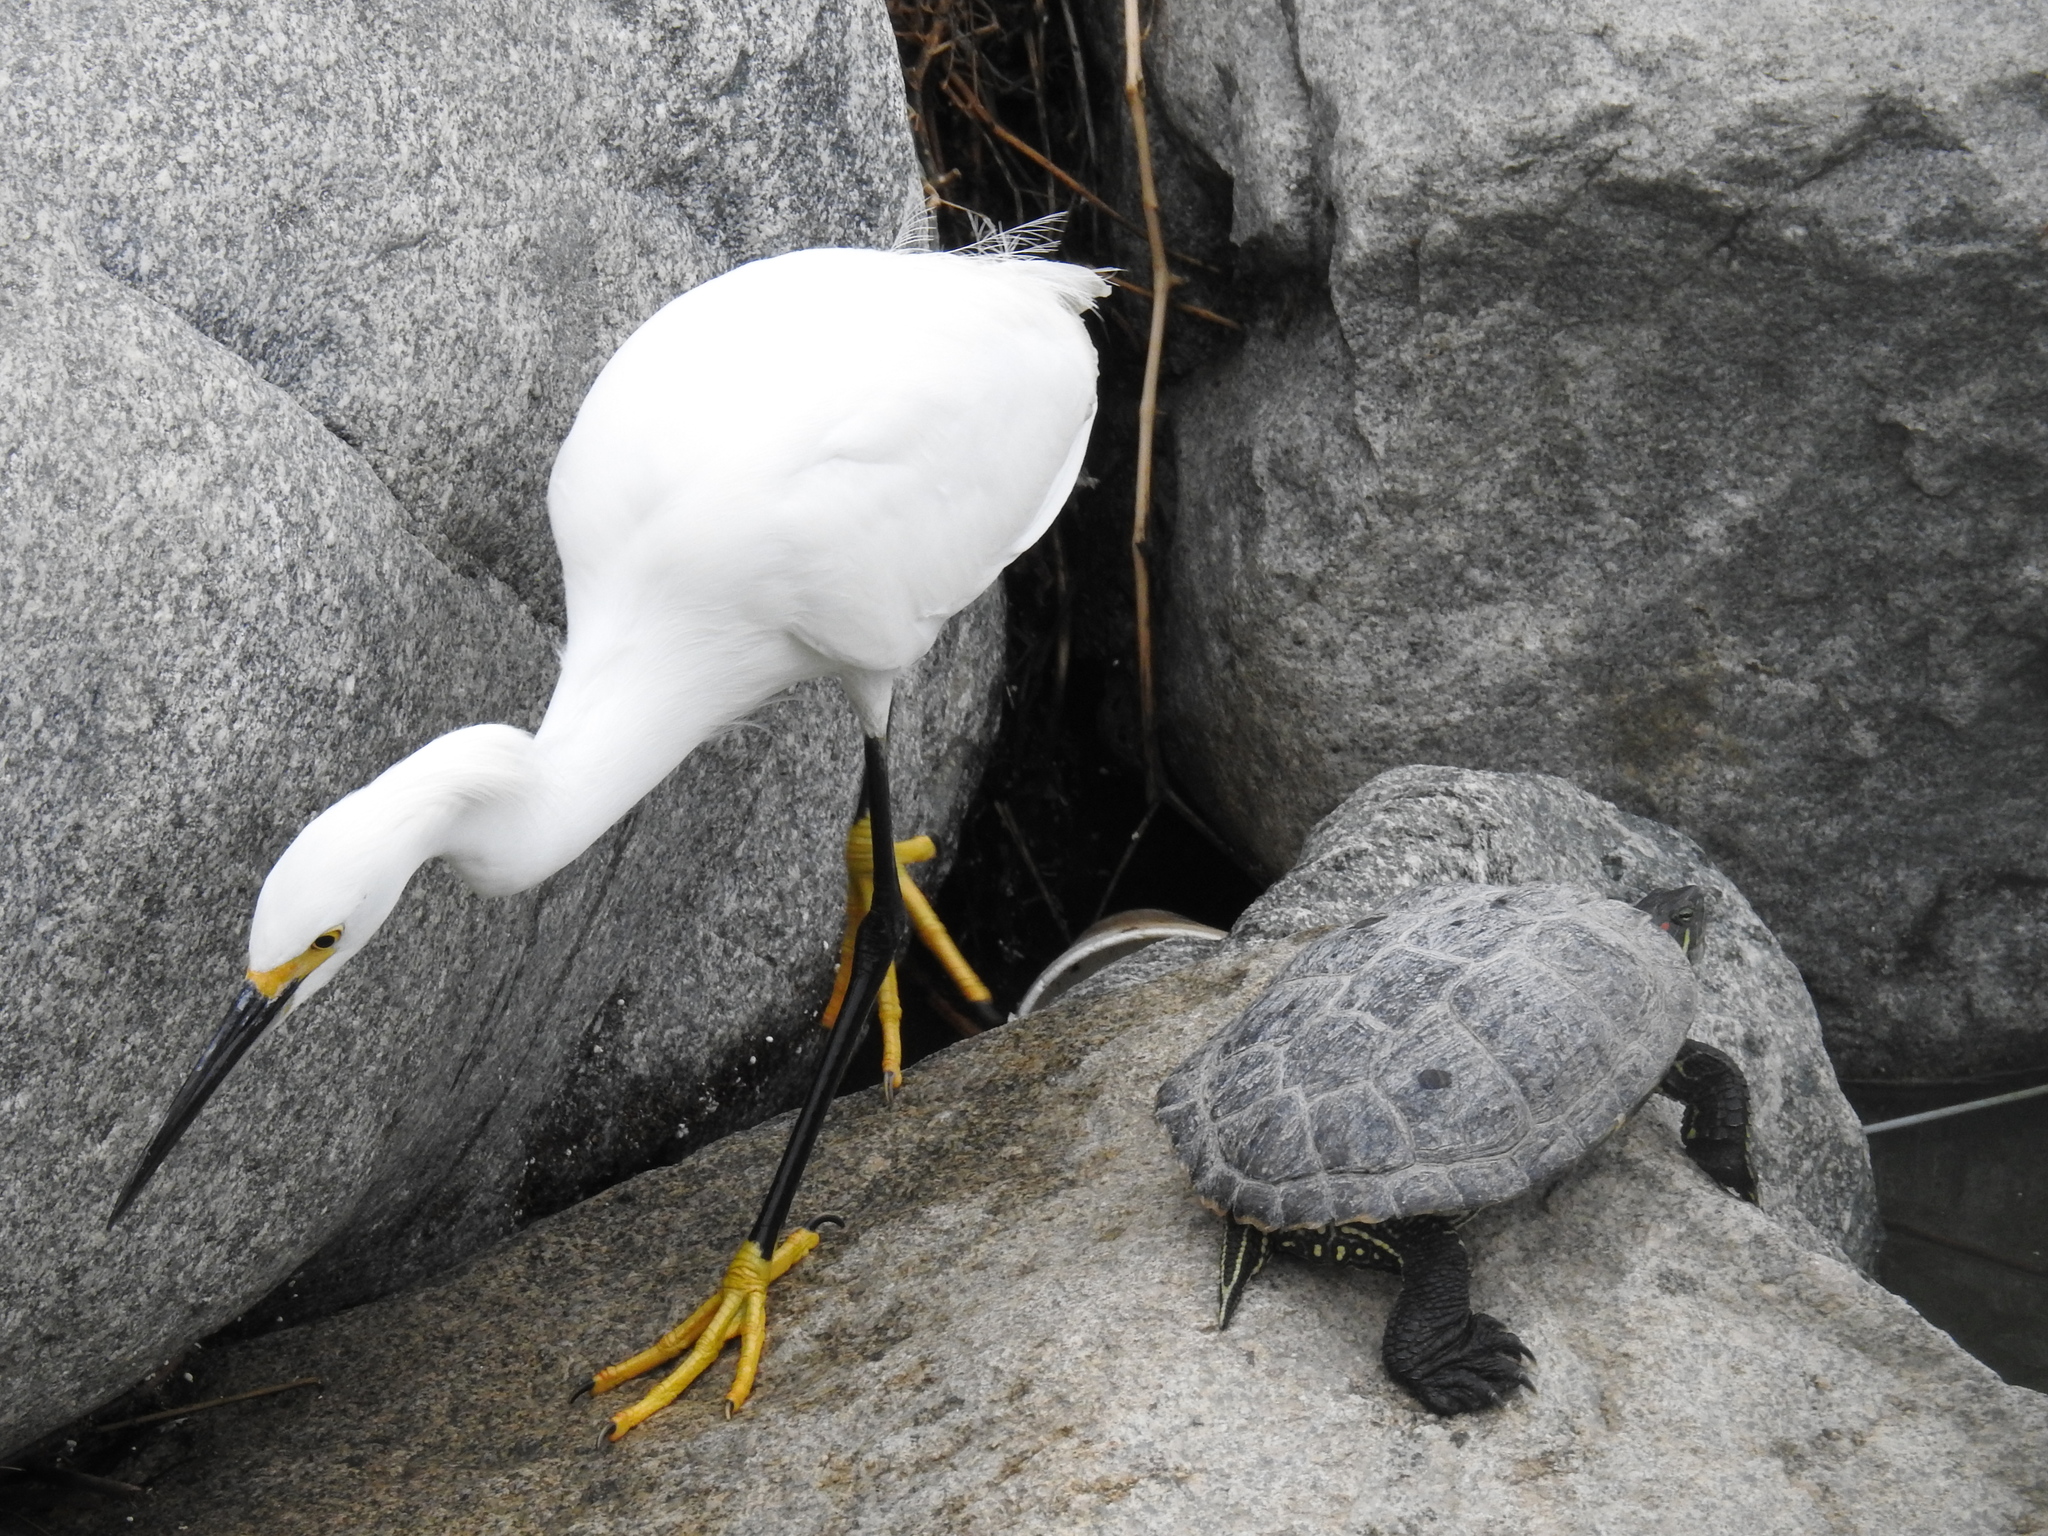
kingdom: Animalia
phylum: Chordata
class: Aves
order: Pelecaniformes
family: Ardeidae
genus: Egretta
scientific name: Egretta thula
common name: Snowy egret
